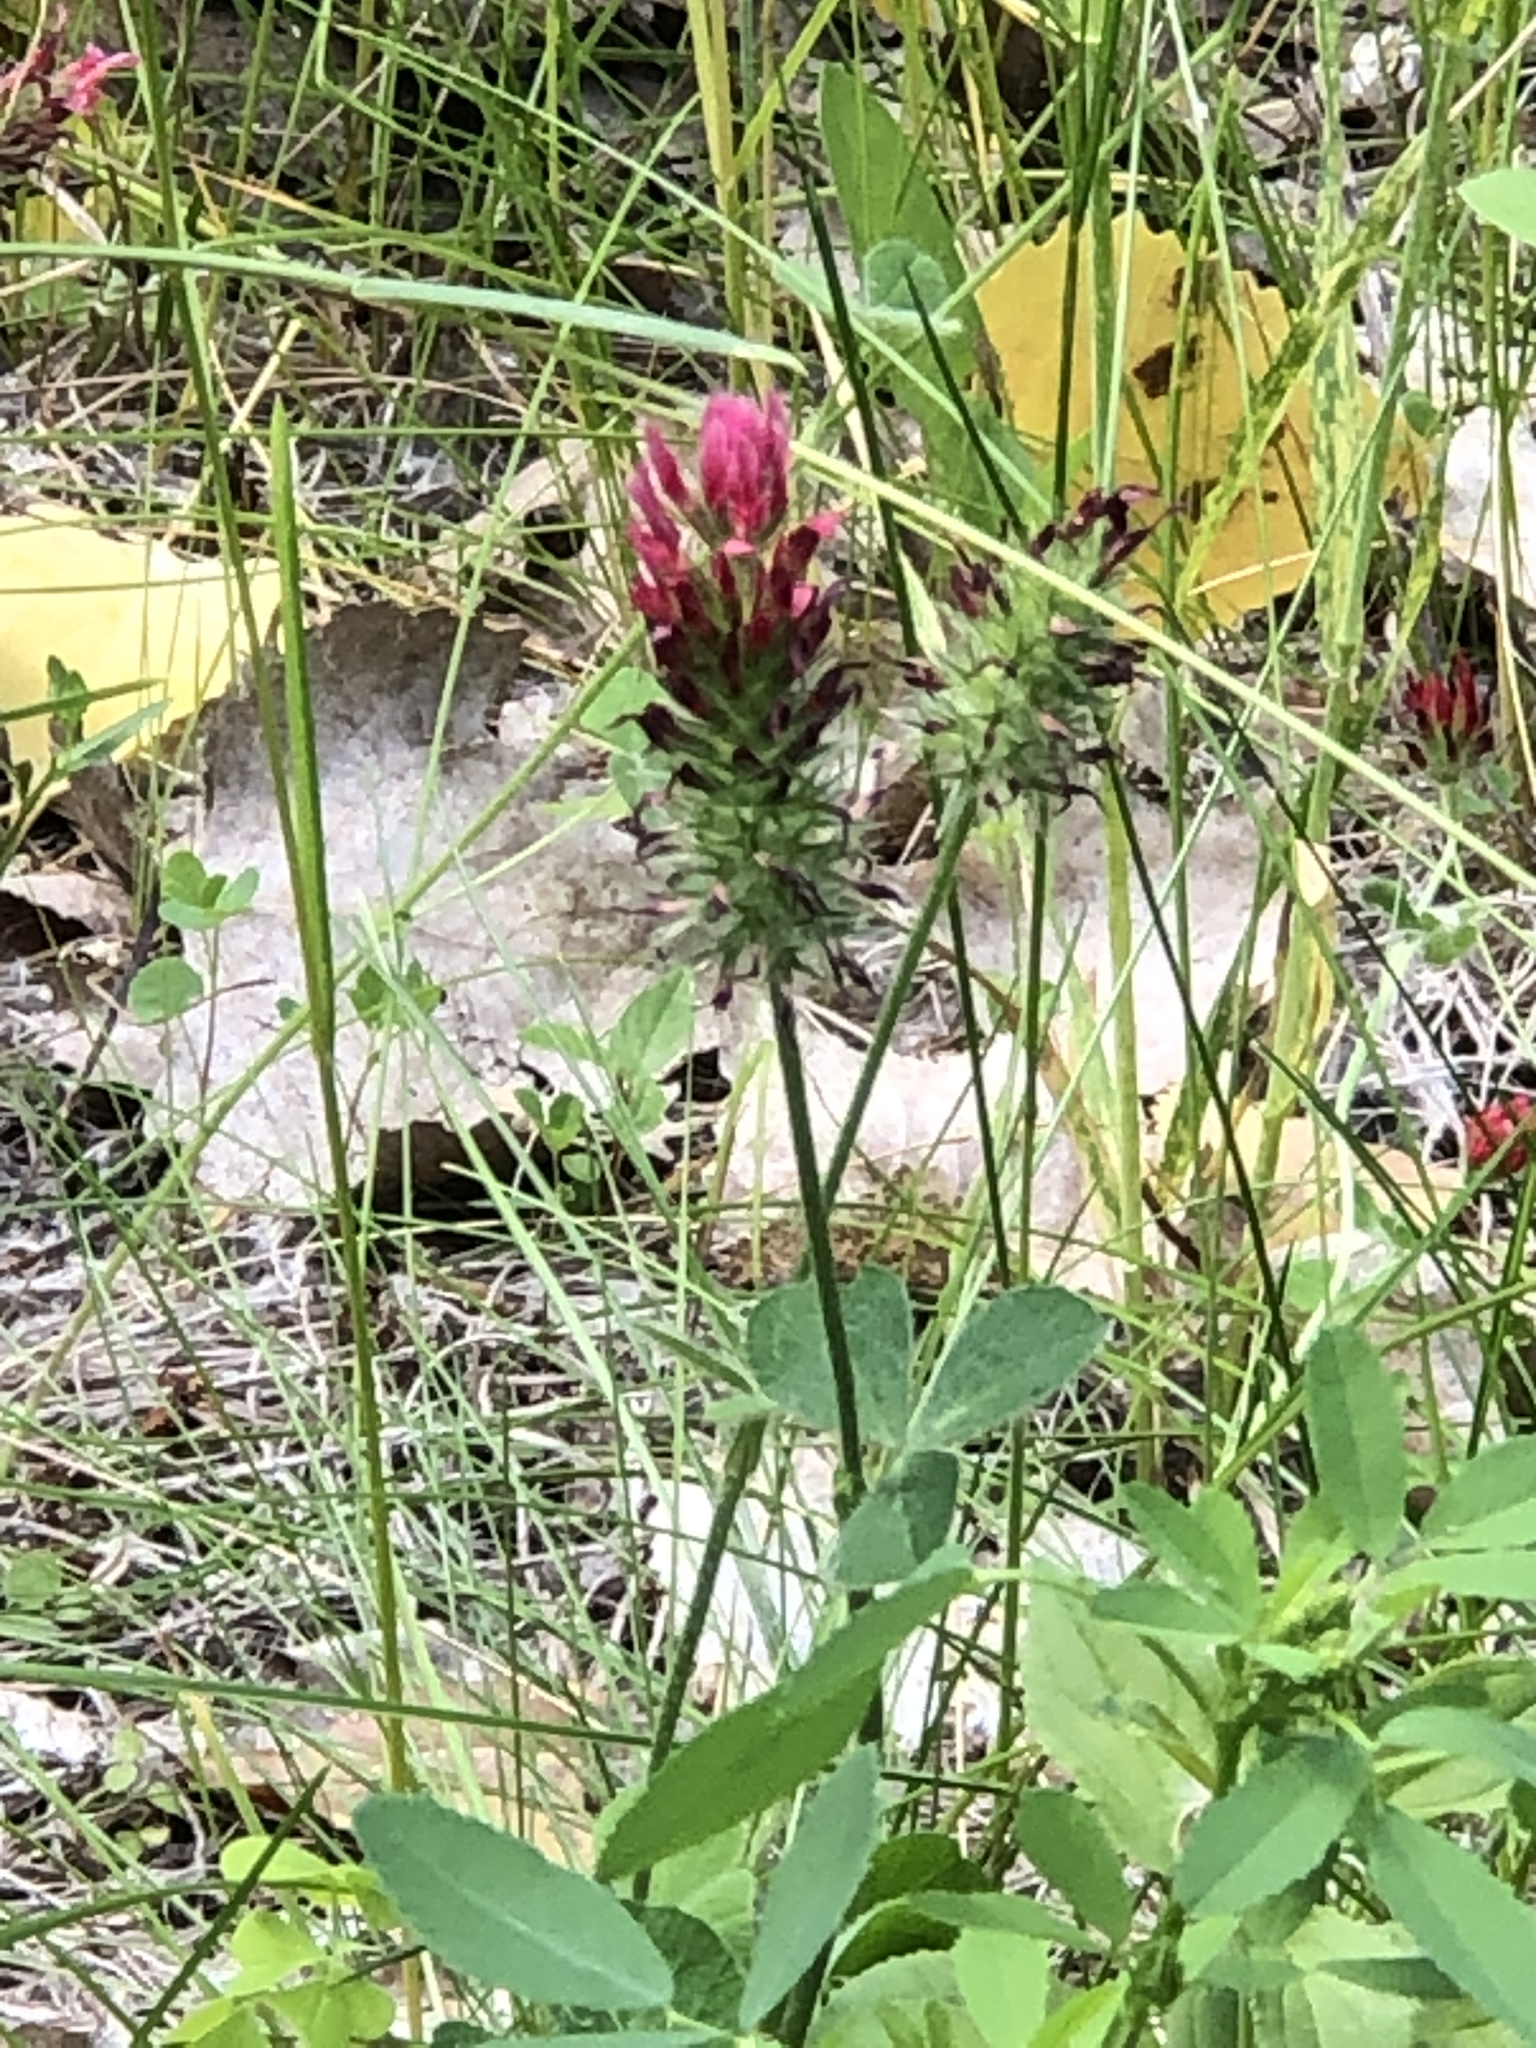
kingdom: Plantae
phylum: Tracheophyta
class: Magnoliopsida
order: Fabales
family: Fabaceae
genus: Trifolium
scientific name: Trifolium incarnatum
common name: Crimson clover
